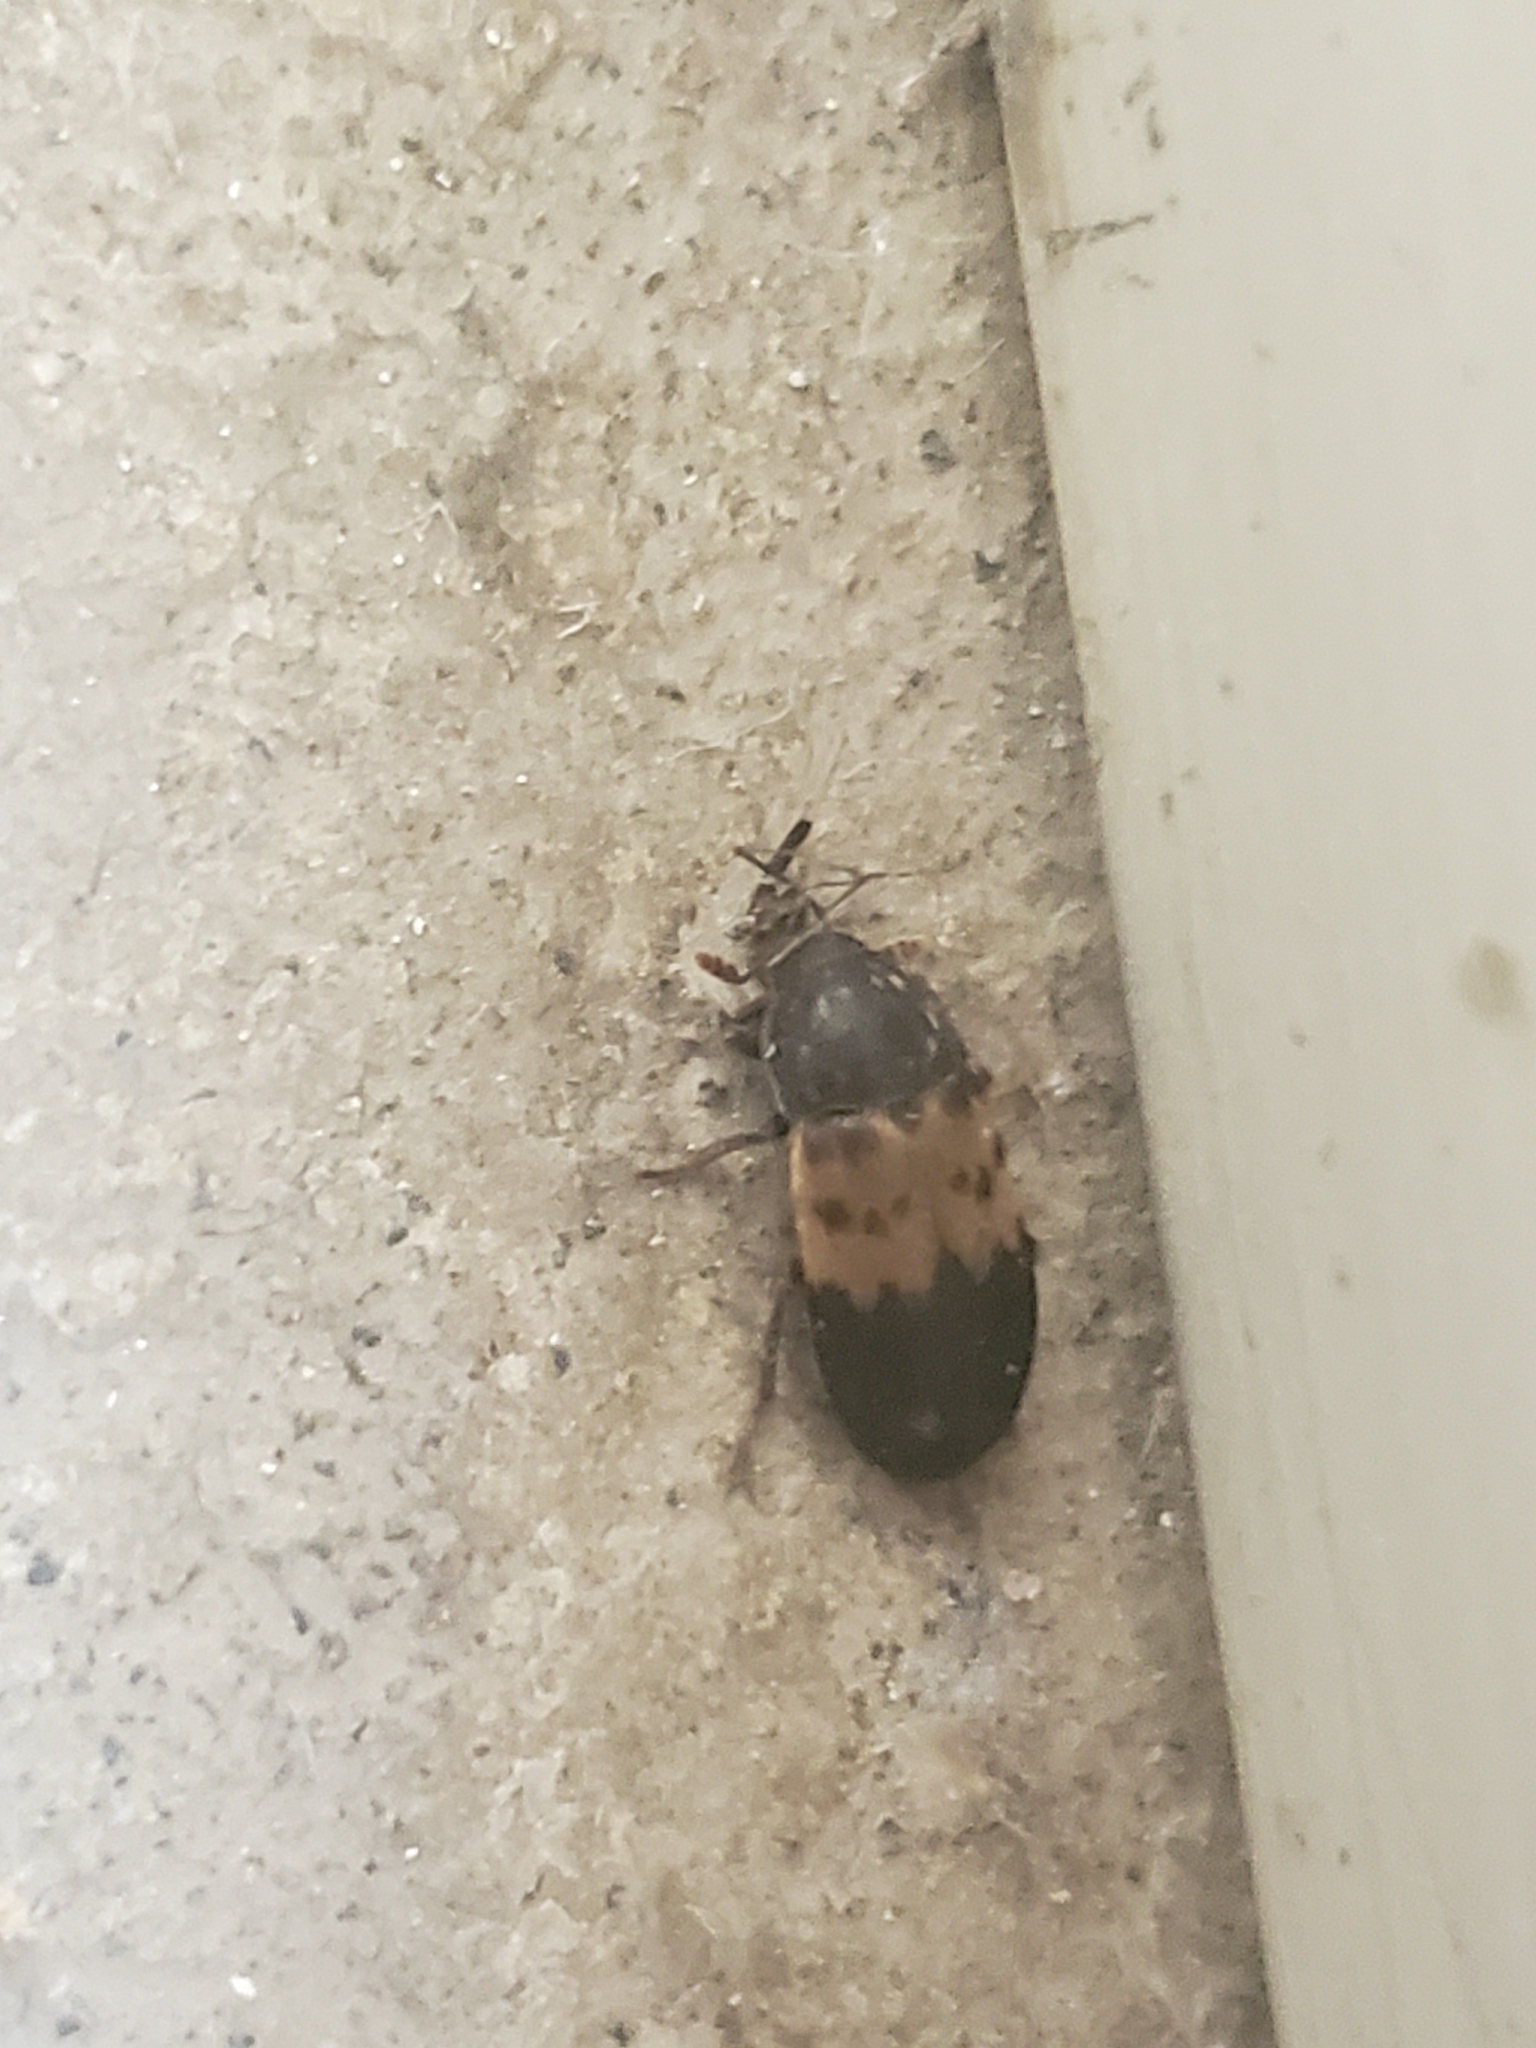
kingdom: Animalia
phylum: Arthropoda
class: Insecta
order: Coleoptera
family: Dermestidae
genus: Dermestes
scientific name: Dermestes lardarius
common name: Larder beetle
